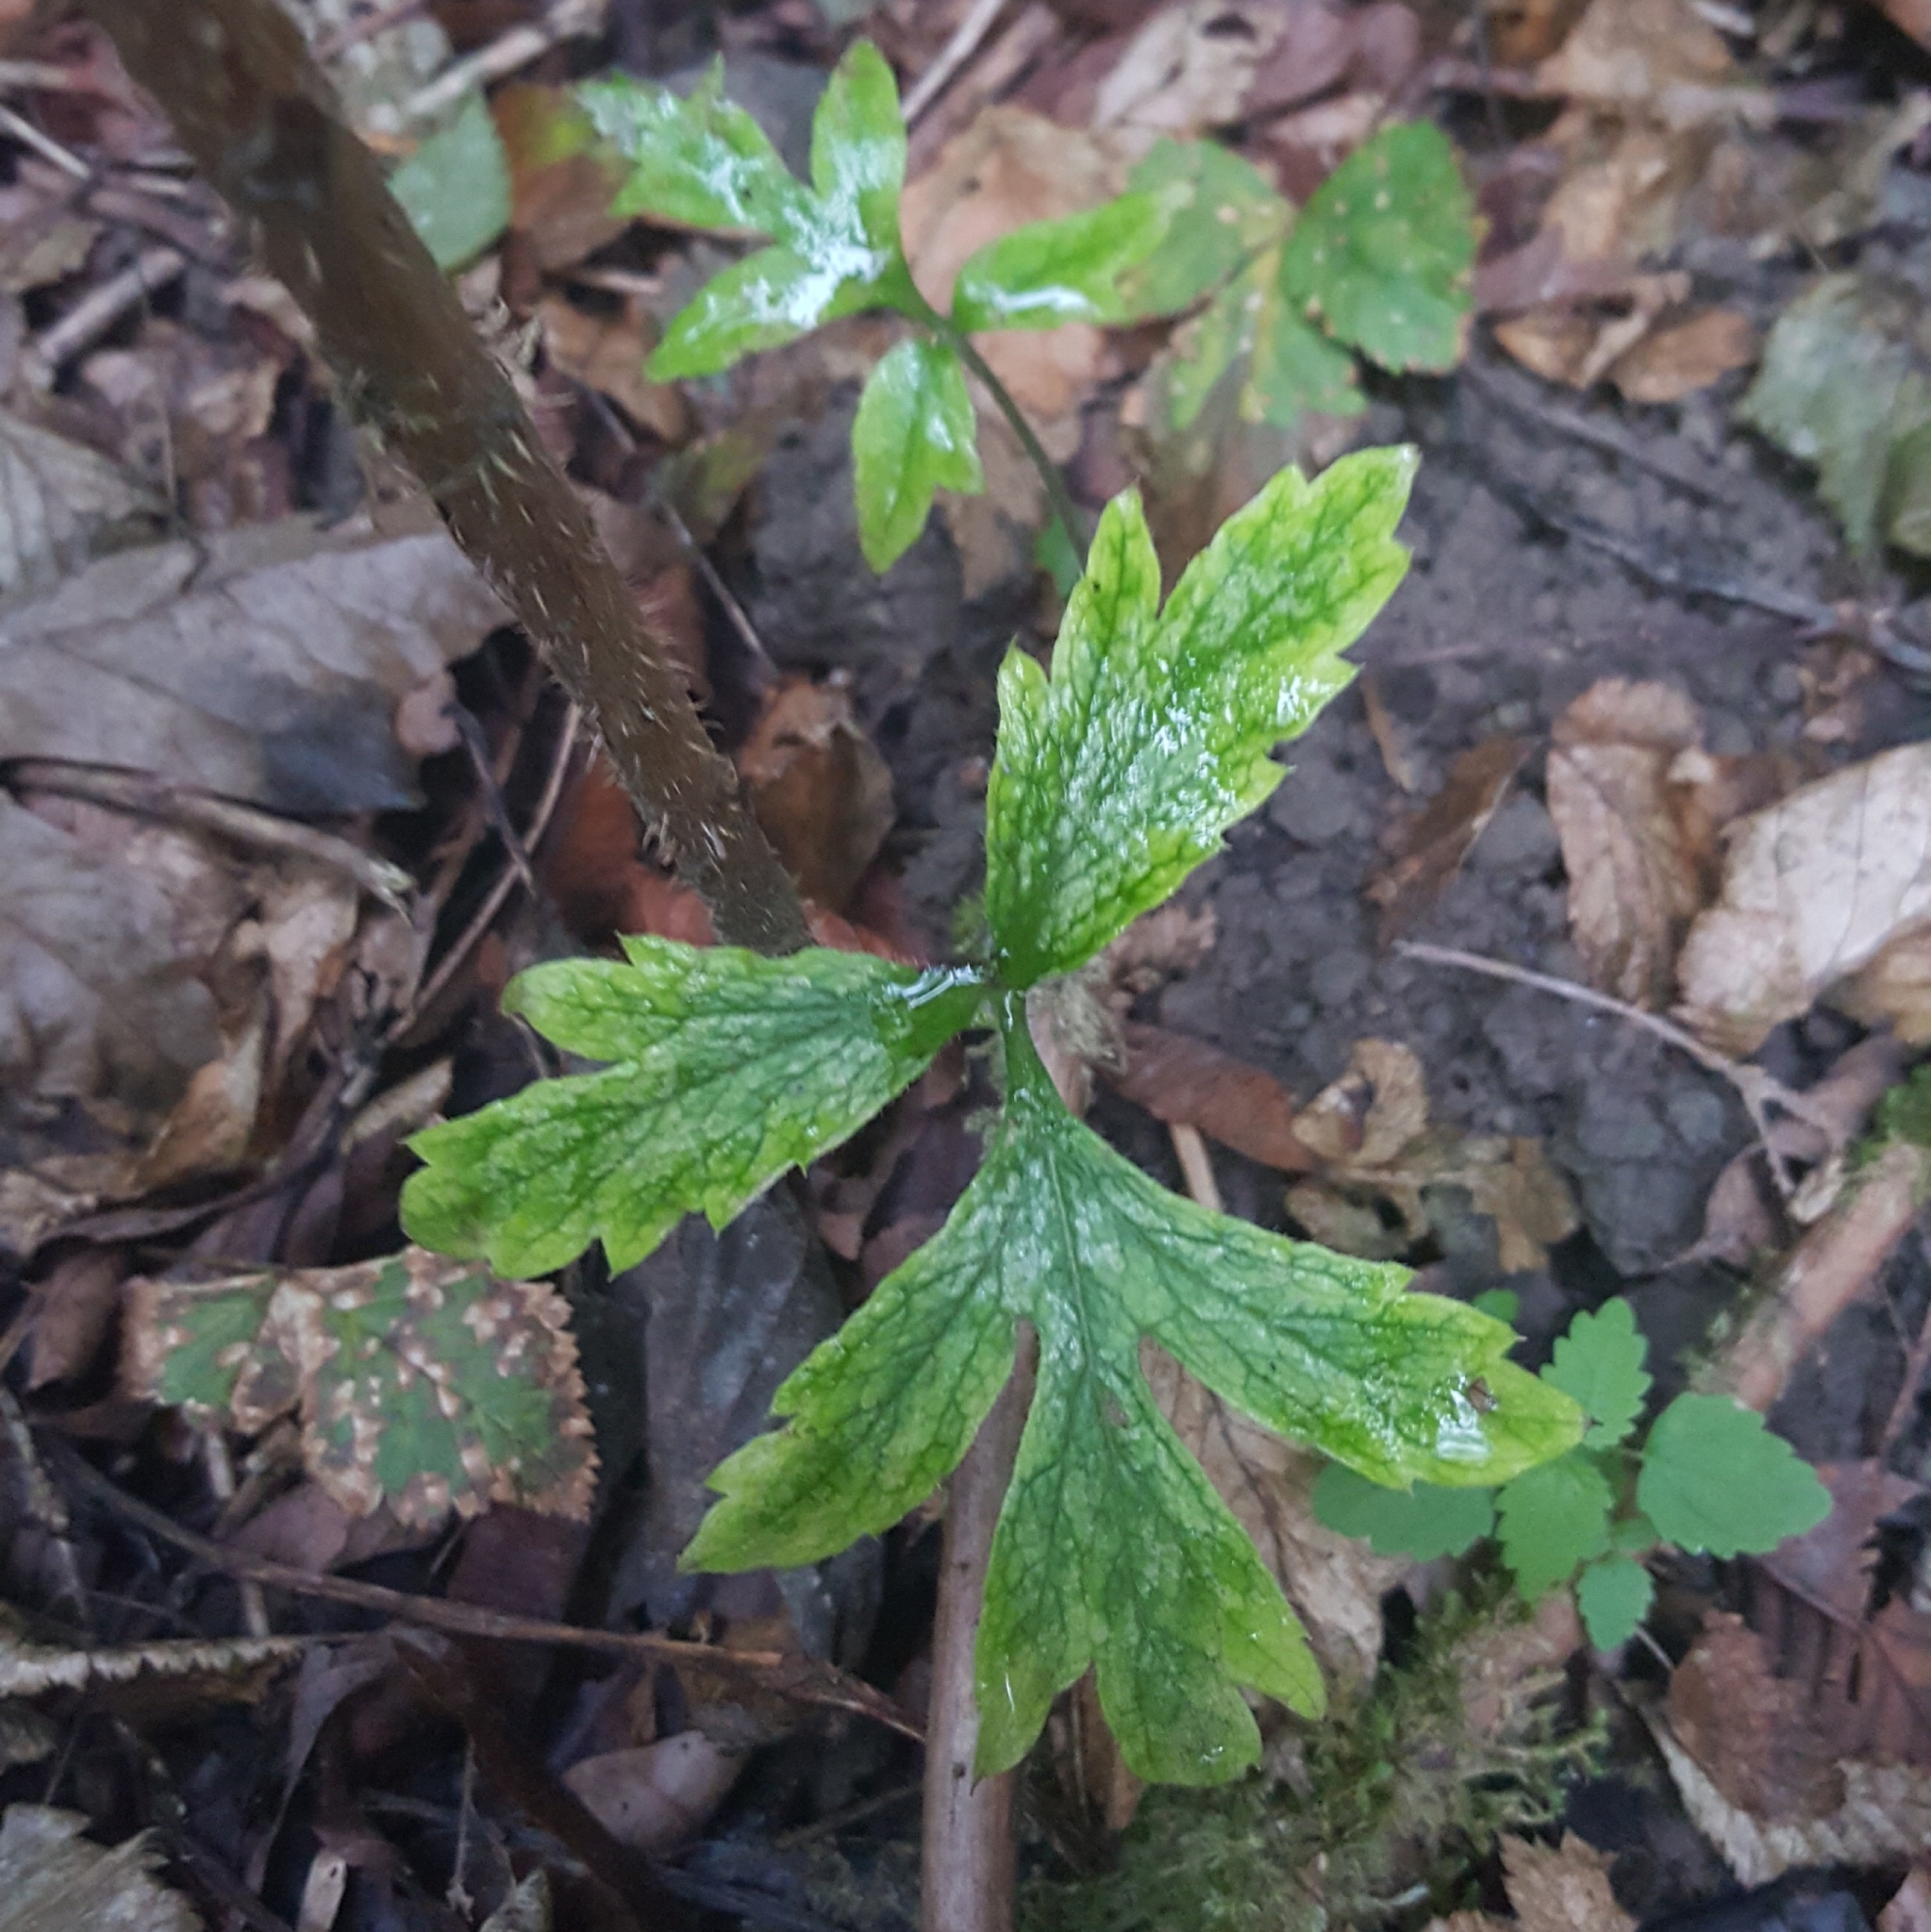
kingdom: Plantae
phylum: Tracheophyta
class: Magnoliopsida
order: Boraginales
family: Hydrophyllaceae
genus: Hydrophyllum
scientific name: Hydrophyllum tenuipes
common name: Pacific waterleaf
